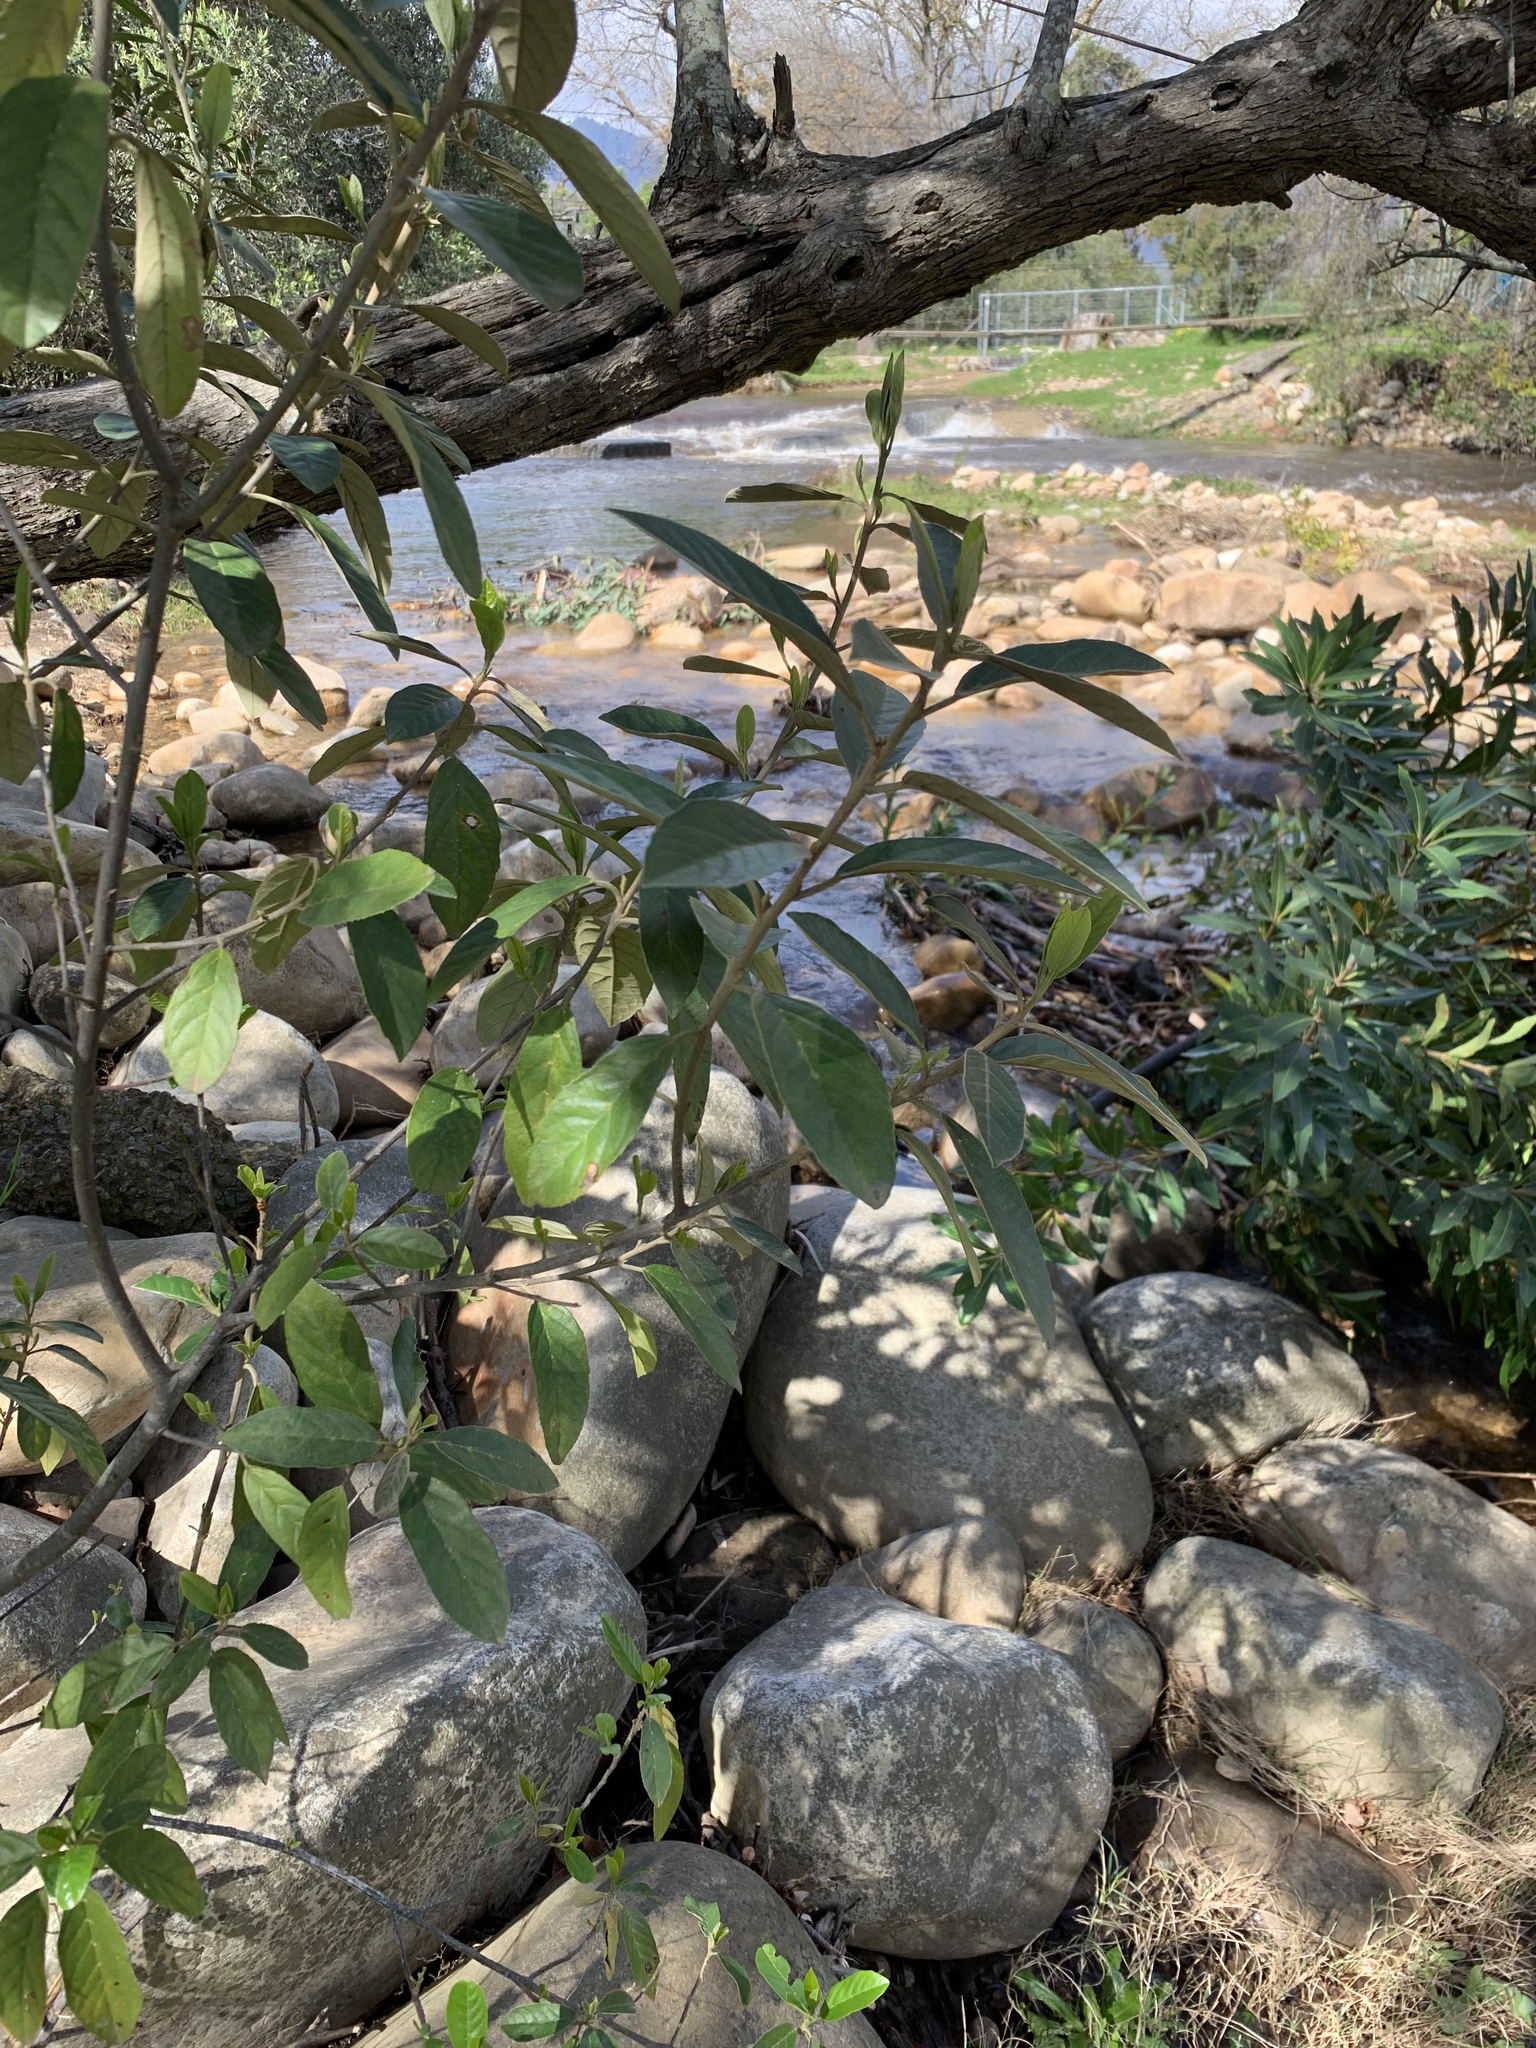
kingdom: Plantae
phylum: Tracheophyta
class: Magnoliopsida
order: Malpighiales
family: Achariaceae
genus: Kiggelaria
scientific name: Kiggelaria africana
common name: Wild peach
